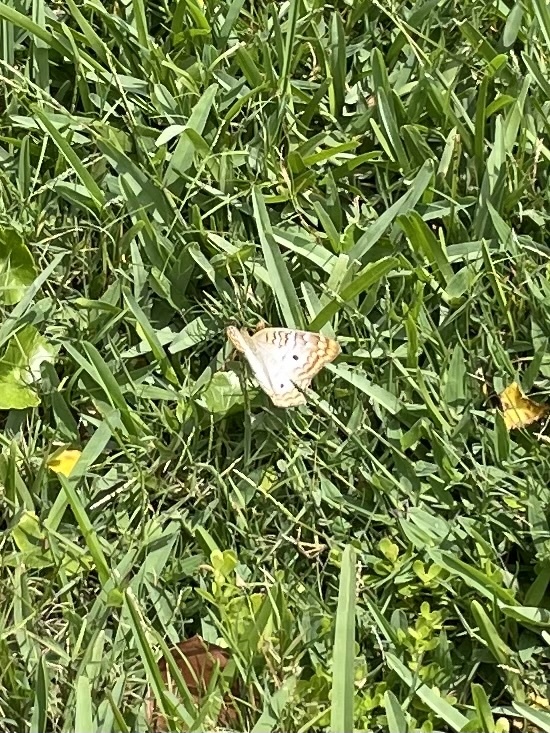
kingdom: Animalia
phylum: Arthropoda
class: Insecta
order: Lepidoptera
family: Nymphalidae
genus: Anartia
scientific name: Anartia jatrophae
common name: White peacock
